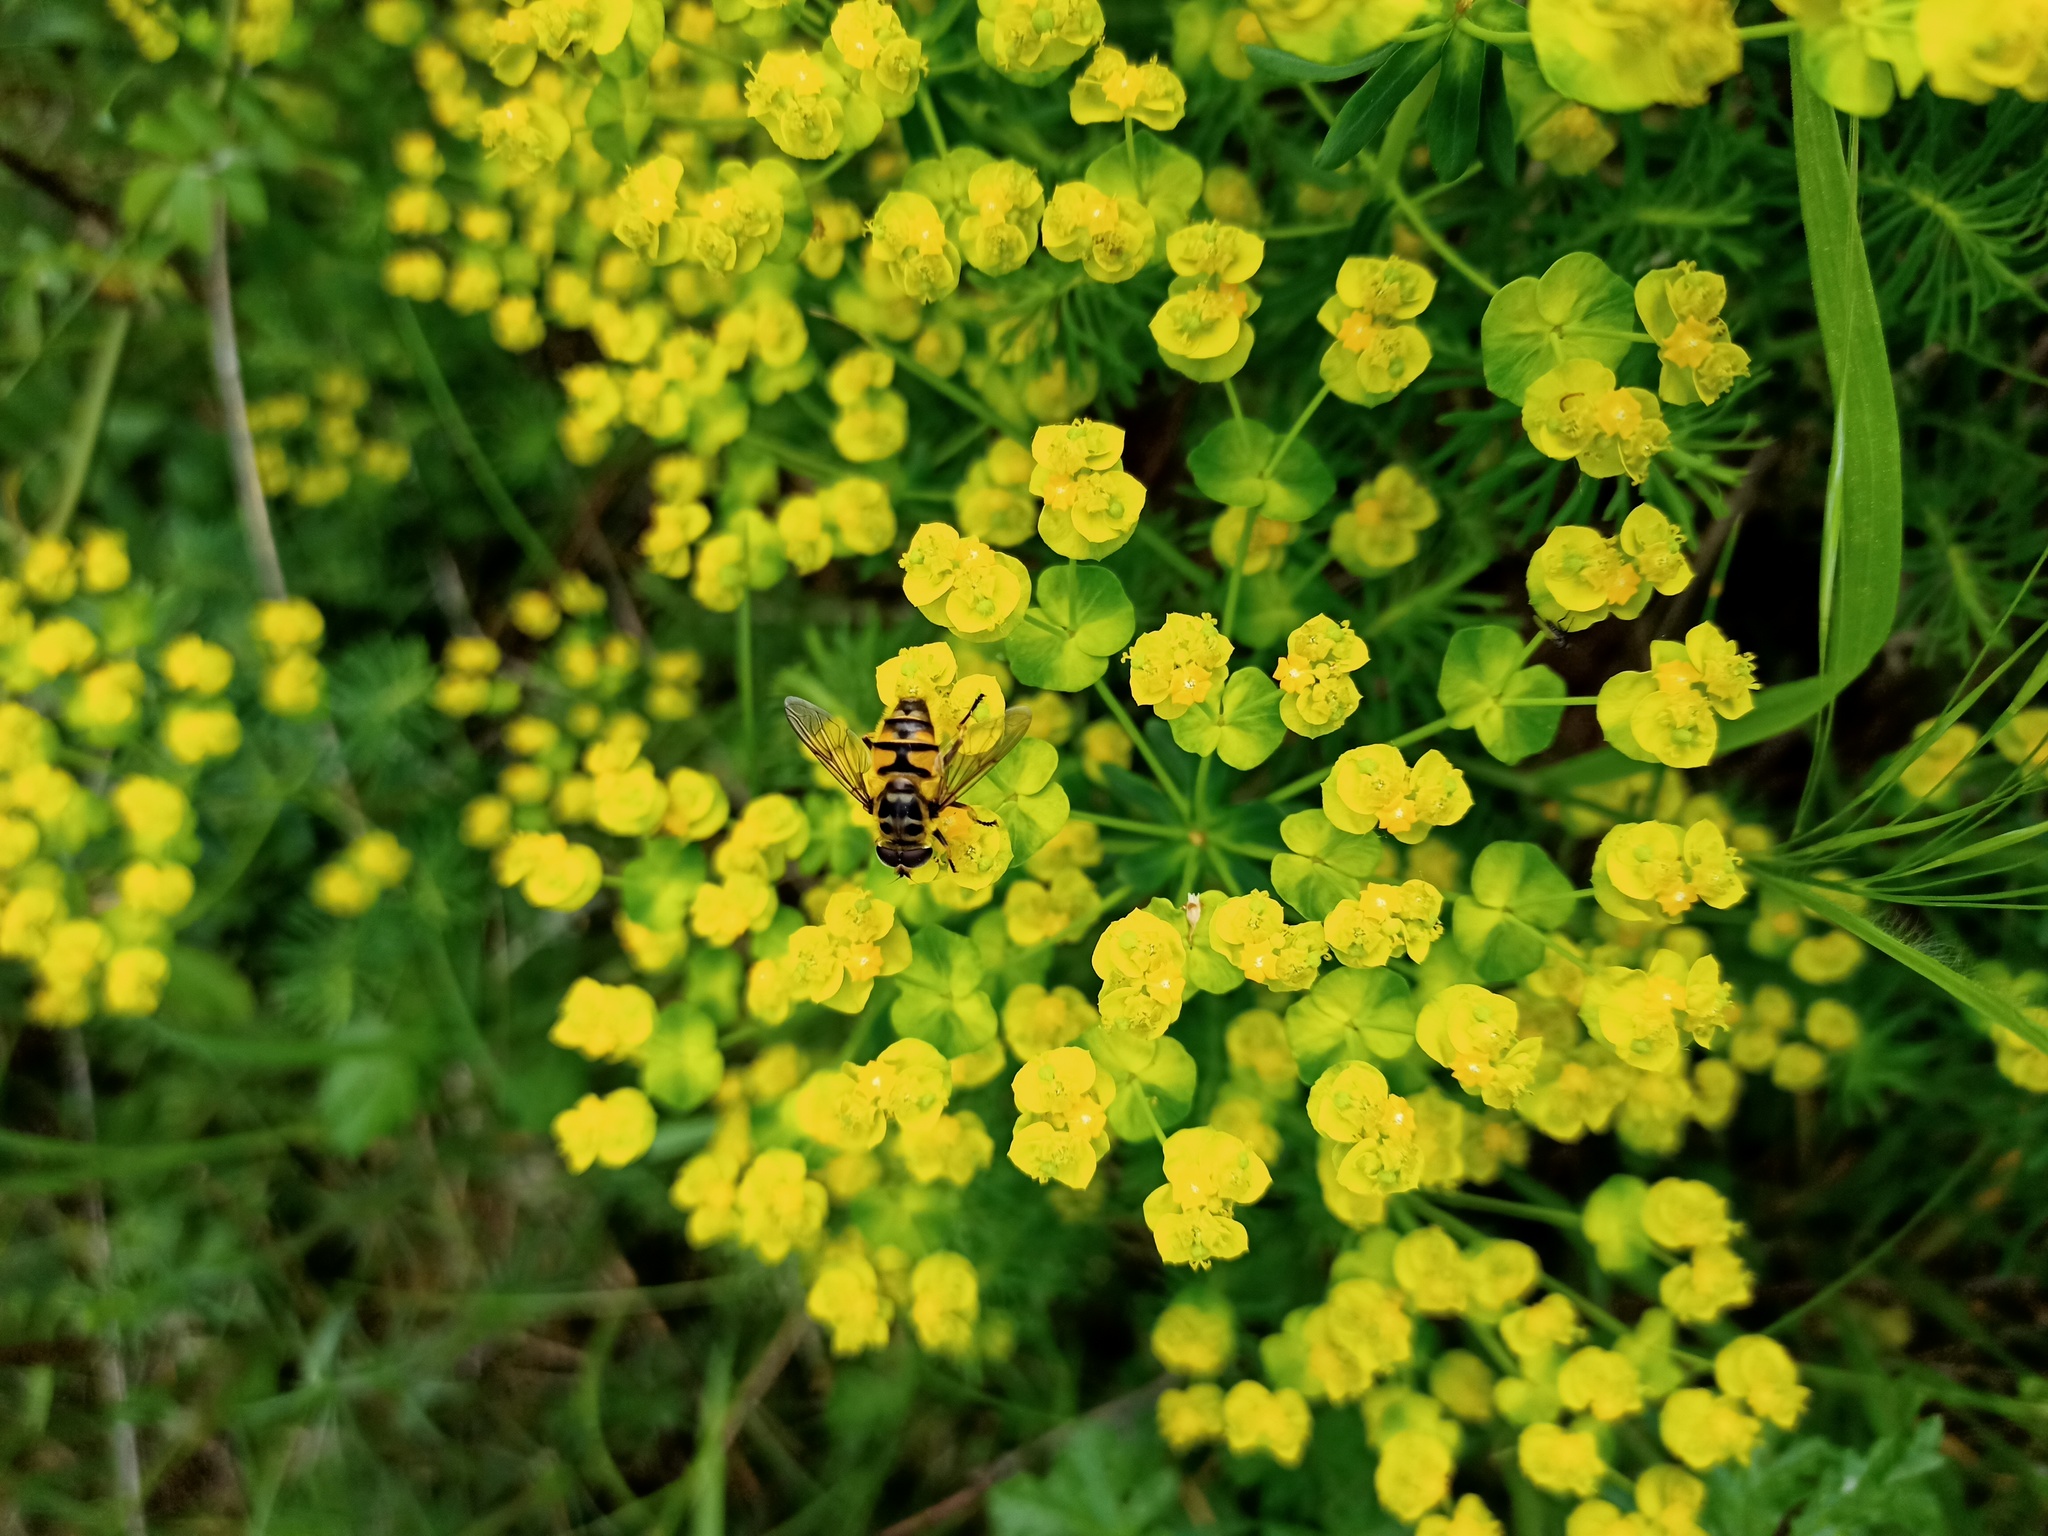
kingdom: Plantae
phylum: Tracheophyta
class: Magnoliopsida
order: Malpighiales
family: Euphorbiaceae
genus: Euphorbia
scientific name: Euphorbia cyparissias
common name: Cypress spurge
